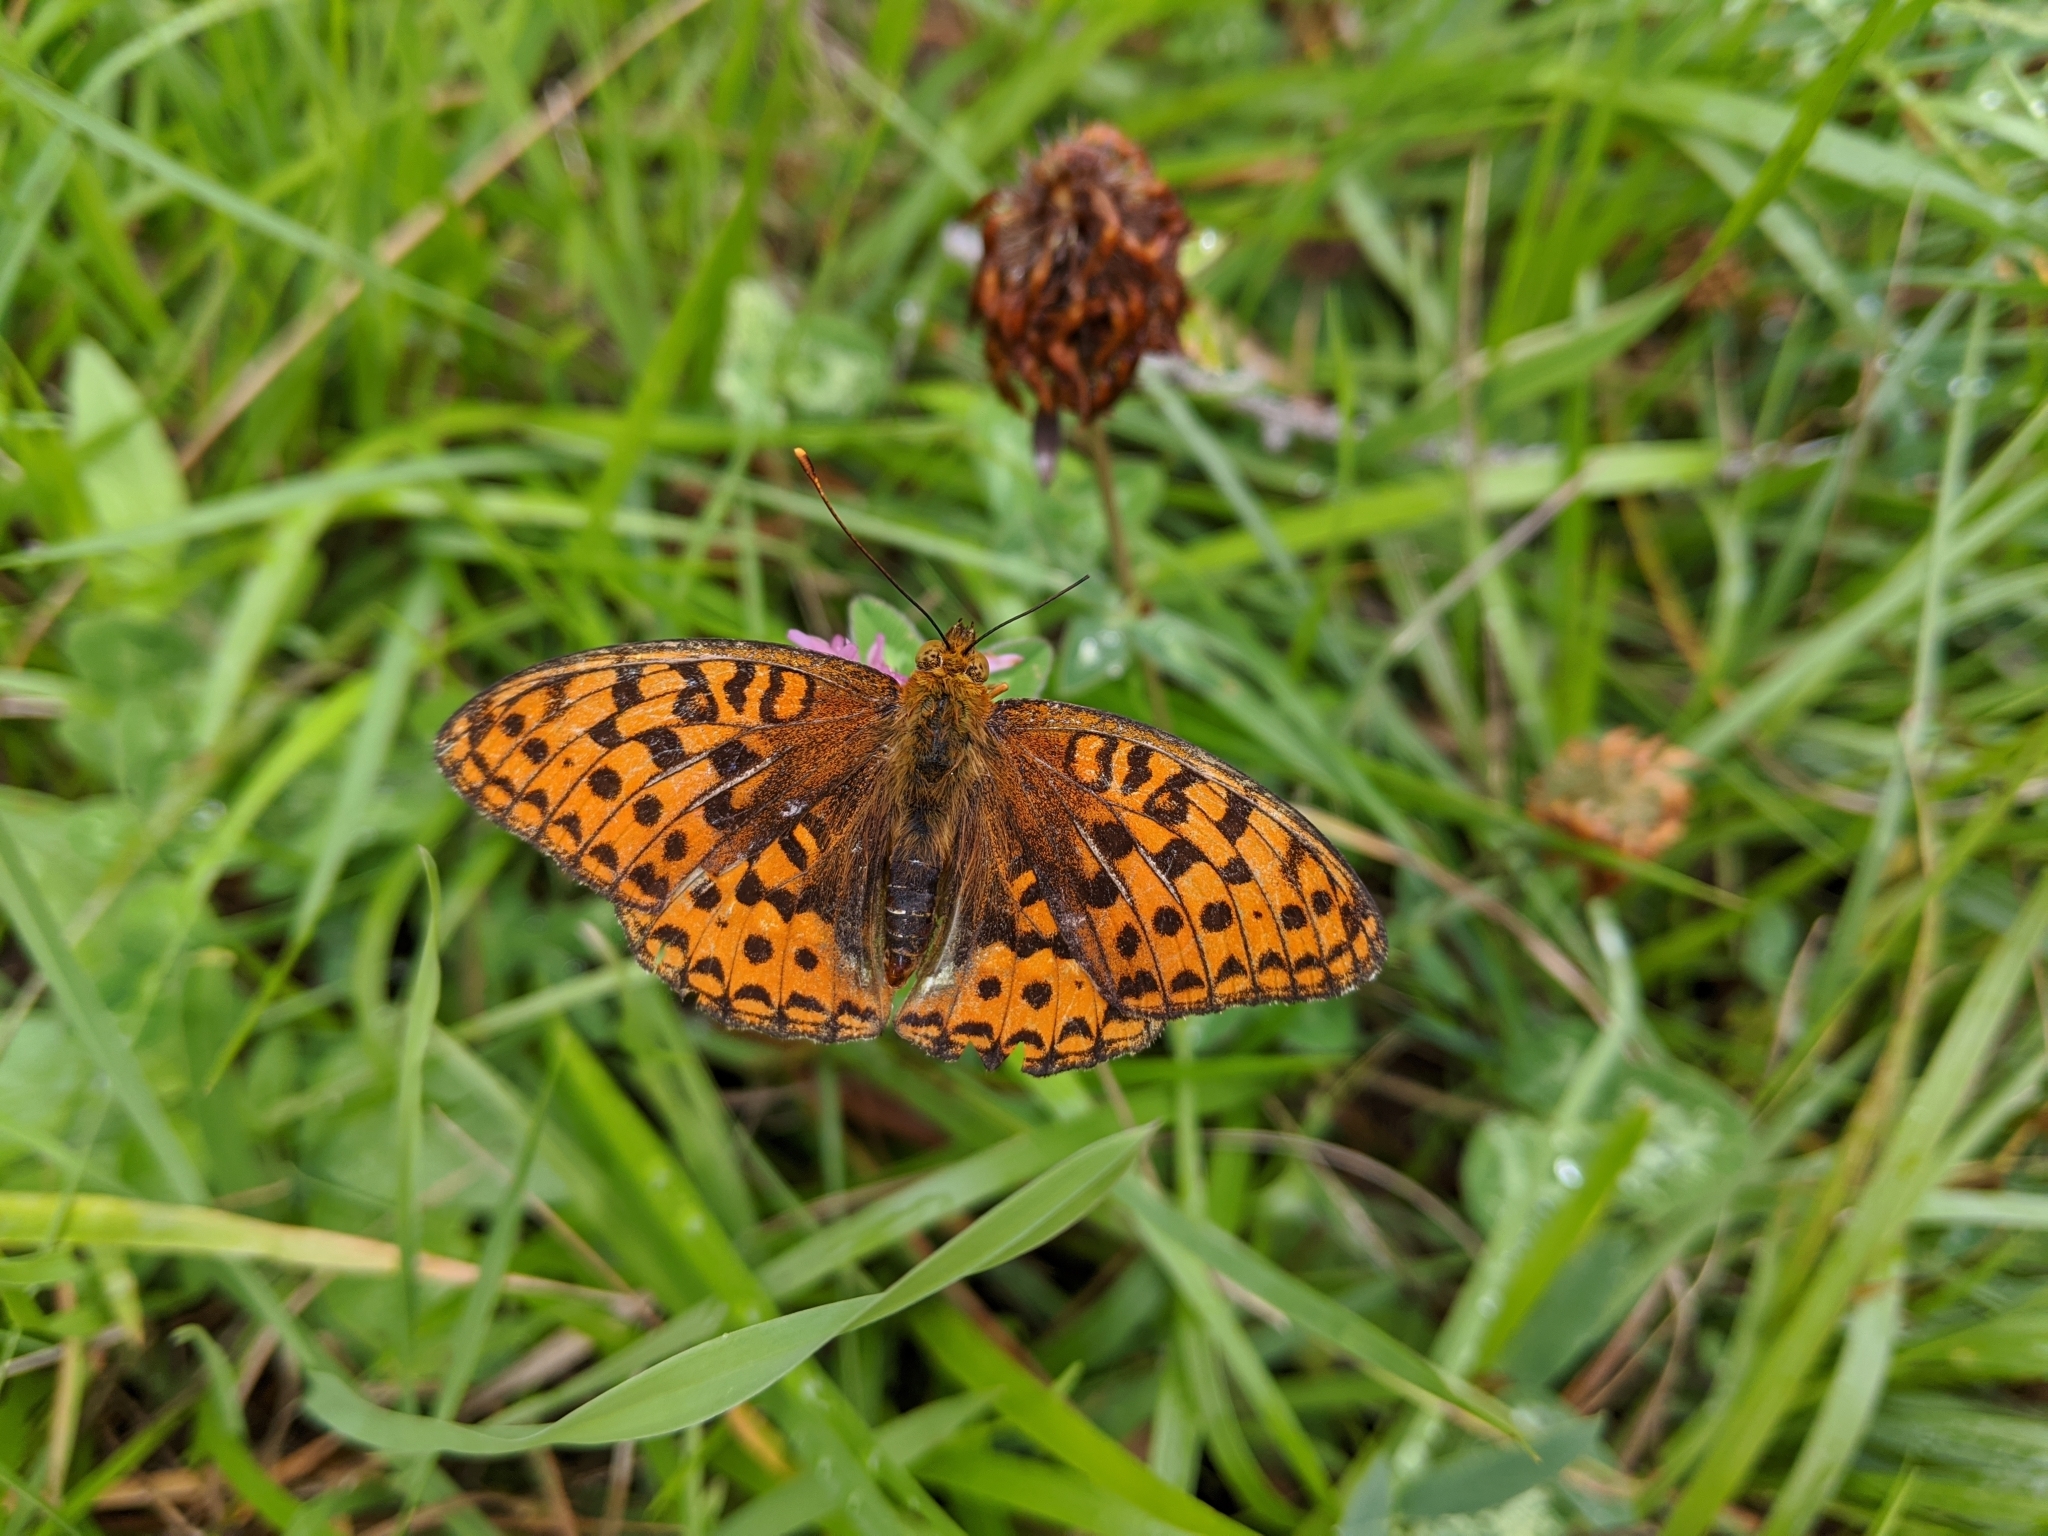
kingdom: Animalia
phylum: Arthropoda
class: Insecta
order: Lepidoptera
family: Nymphalidae
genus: Fabriciana
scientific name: Fabriciana adippe
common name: High brown fritillary
